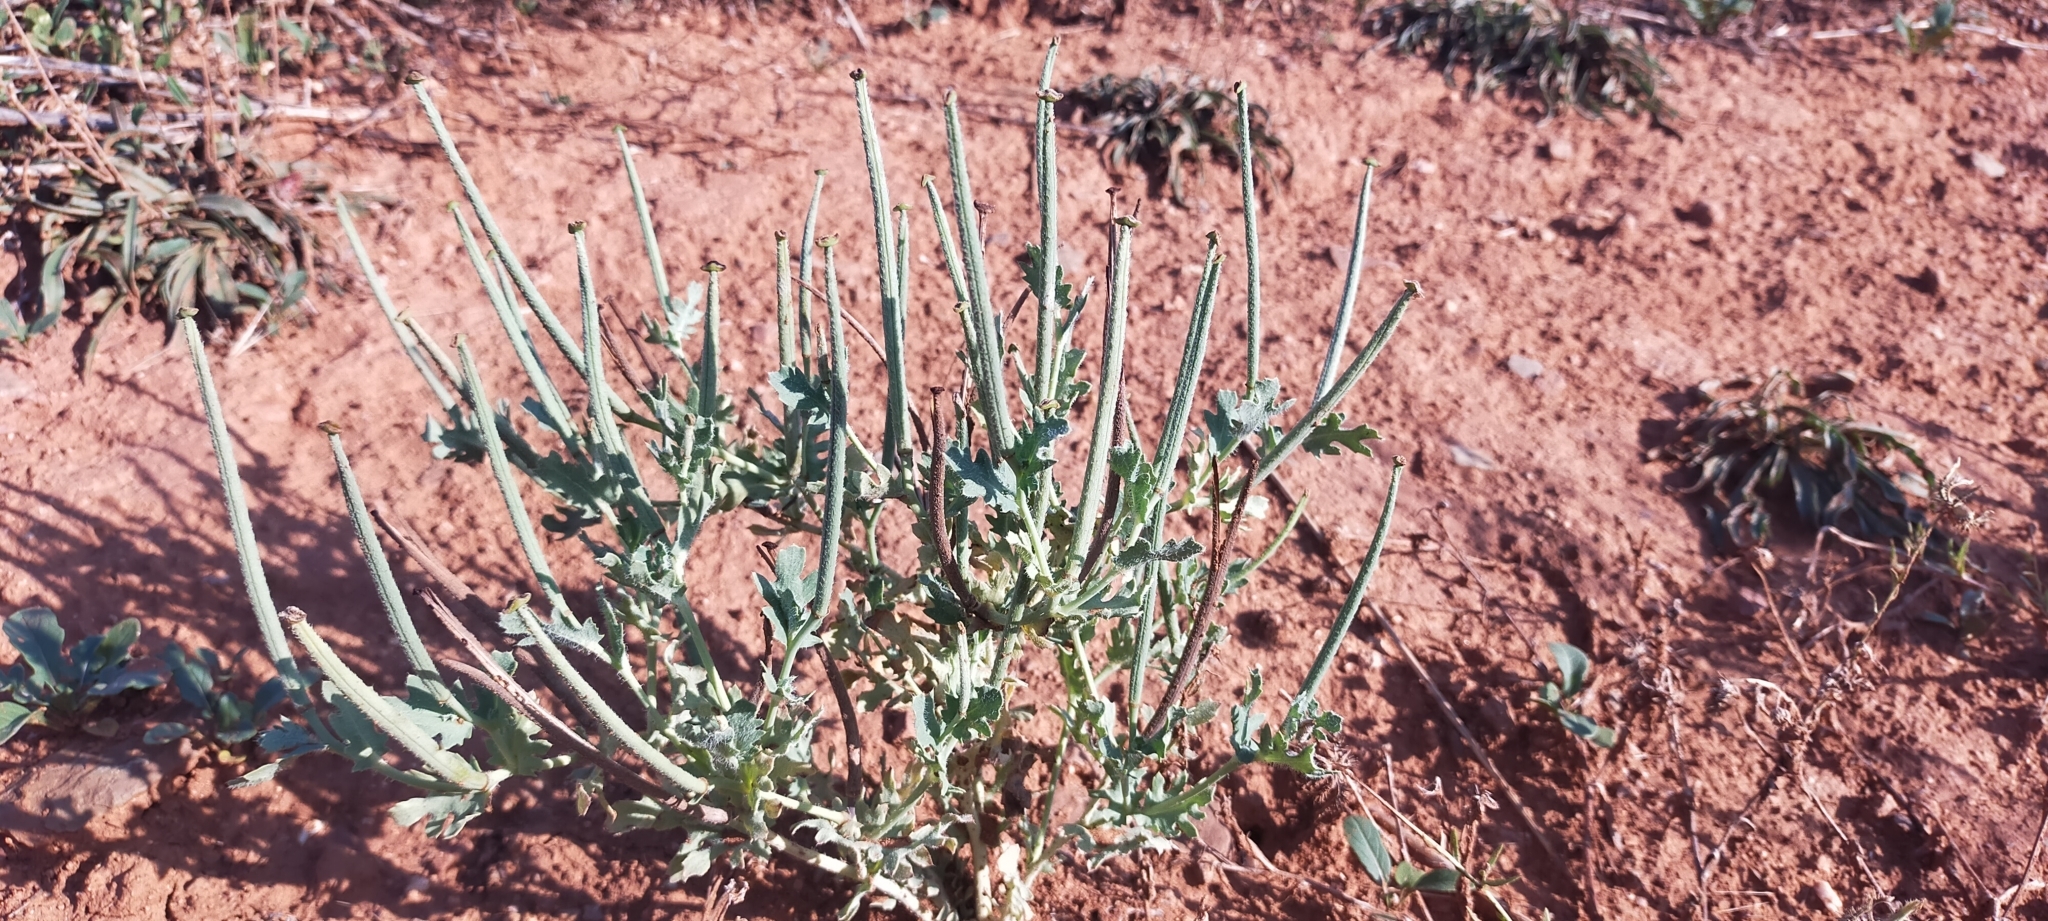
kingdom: Plantae
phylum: Tracheophyta
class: Magnoliopsida
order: Ranunculales
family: Papaveraceae
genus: Glaucium
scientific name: Glaucium corniculatum
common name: Red horned-poppy
